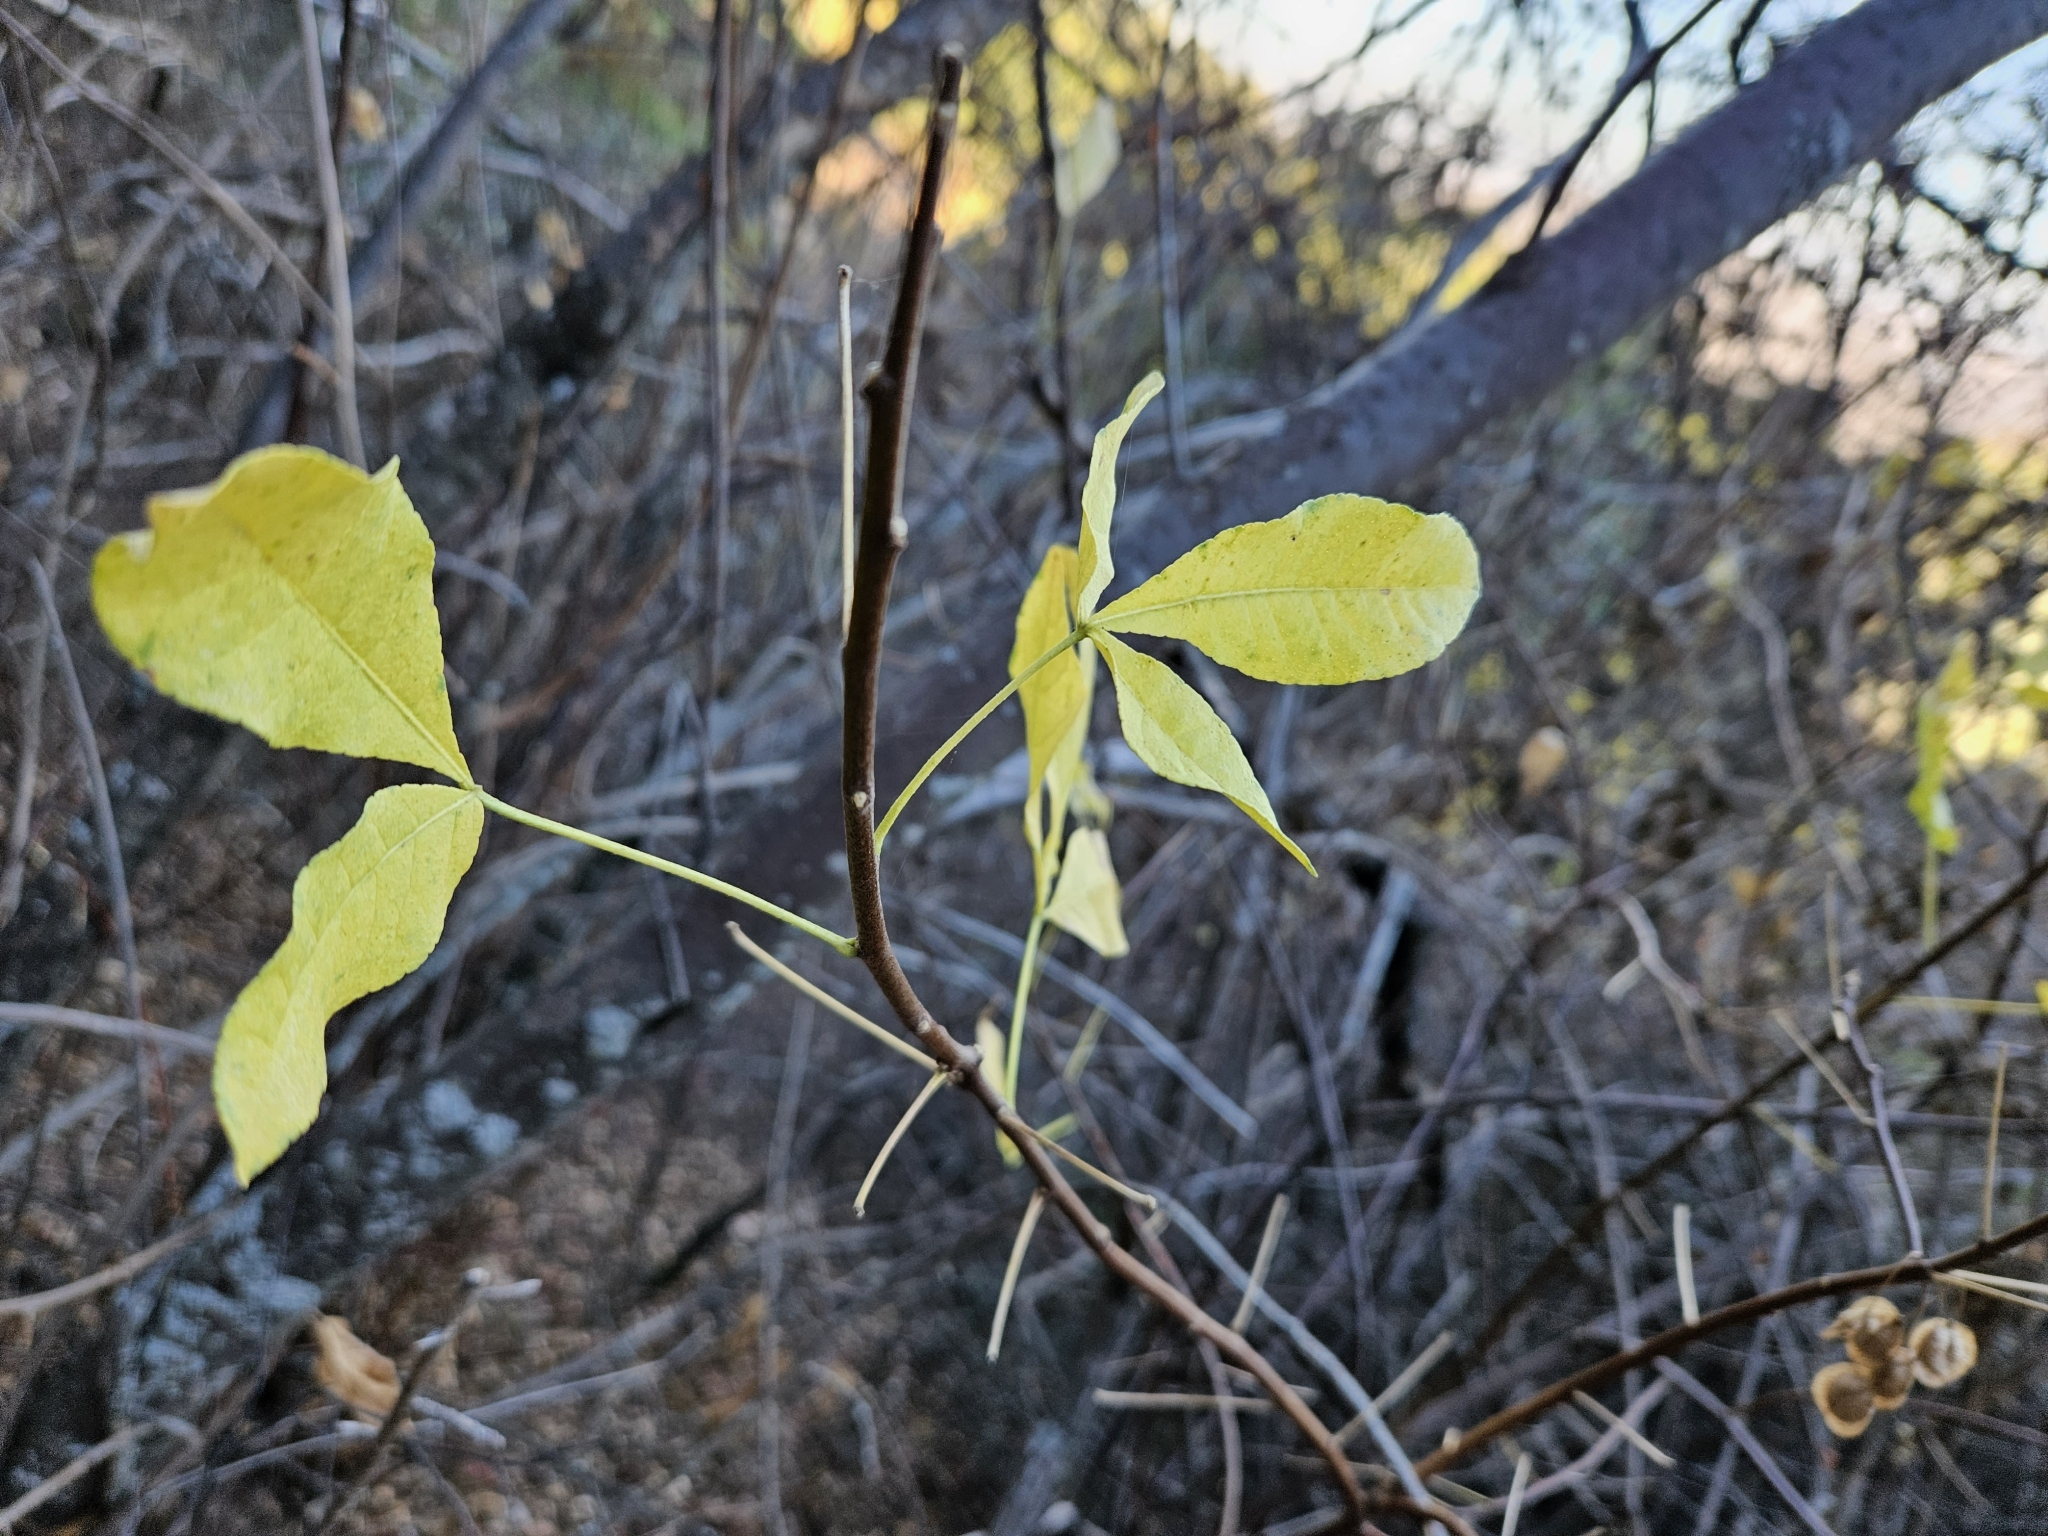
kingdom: Plantae
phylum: Tracheophyta
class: Magnoliopsida
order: Sapindales
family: Rutaceae
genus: Ptelea
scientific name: Ptelea crenulata
